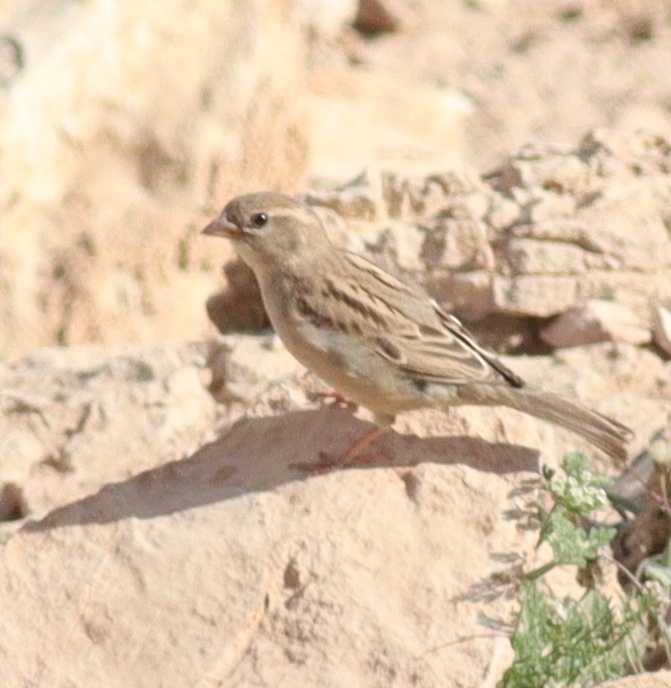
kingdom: Animalia
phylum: Chordata
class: Aves
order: Passeriformes
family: Passeridae
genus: Passer
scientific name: Passer domesticus
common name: House sparrow
